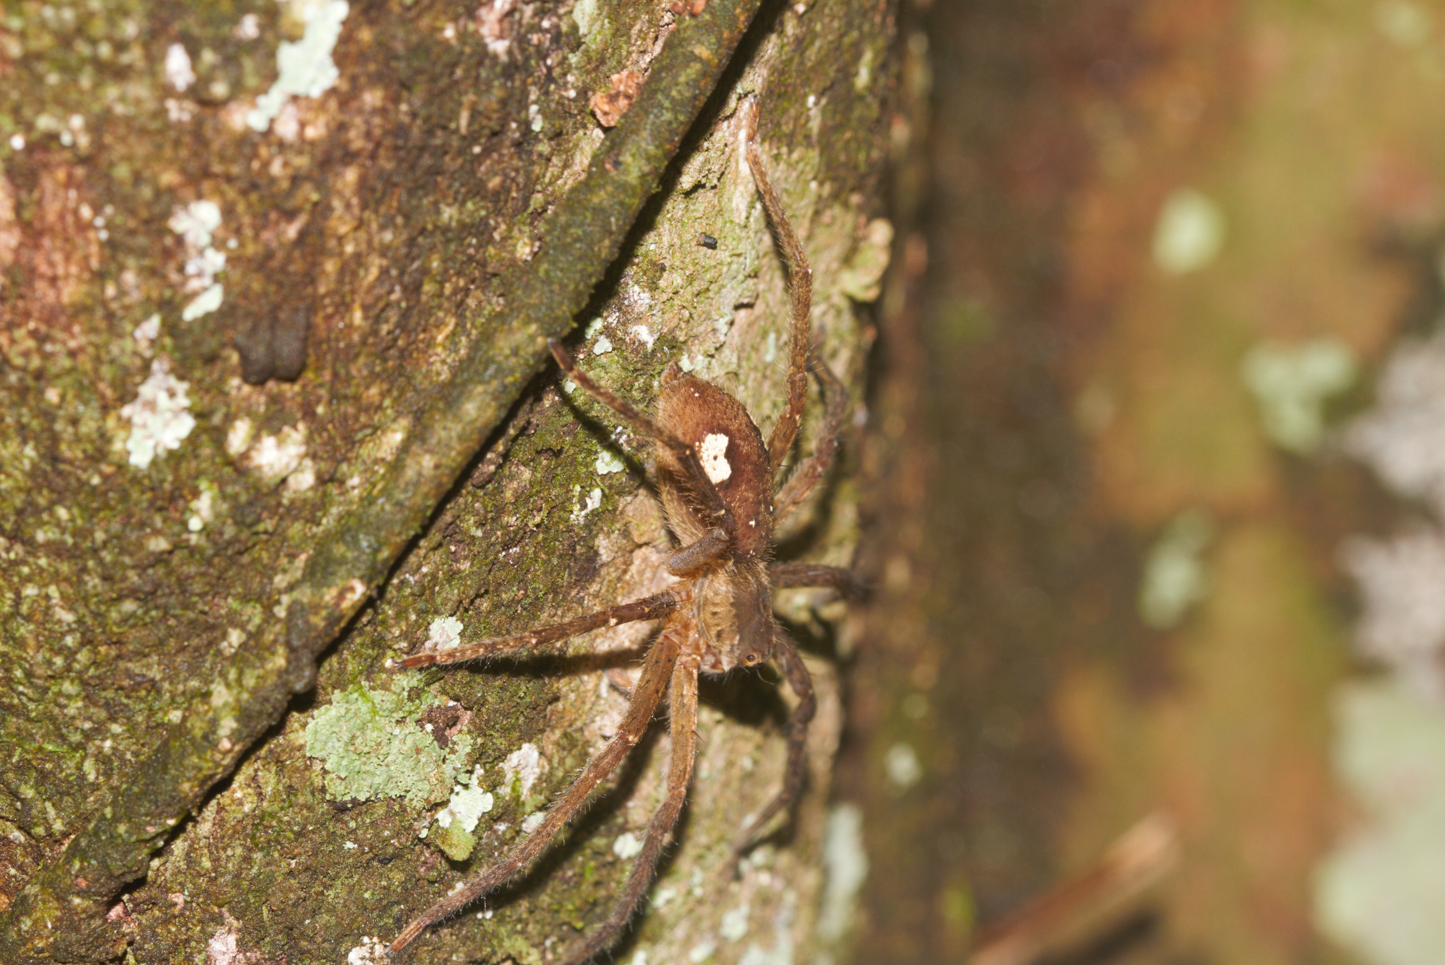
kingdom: Animalia
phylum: Arthropoda
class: Arachnida
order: Araneae
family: Trechaleidae
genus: Cupiennius
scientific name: Cupiennius bimaculatus
